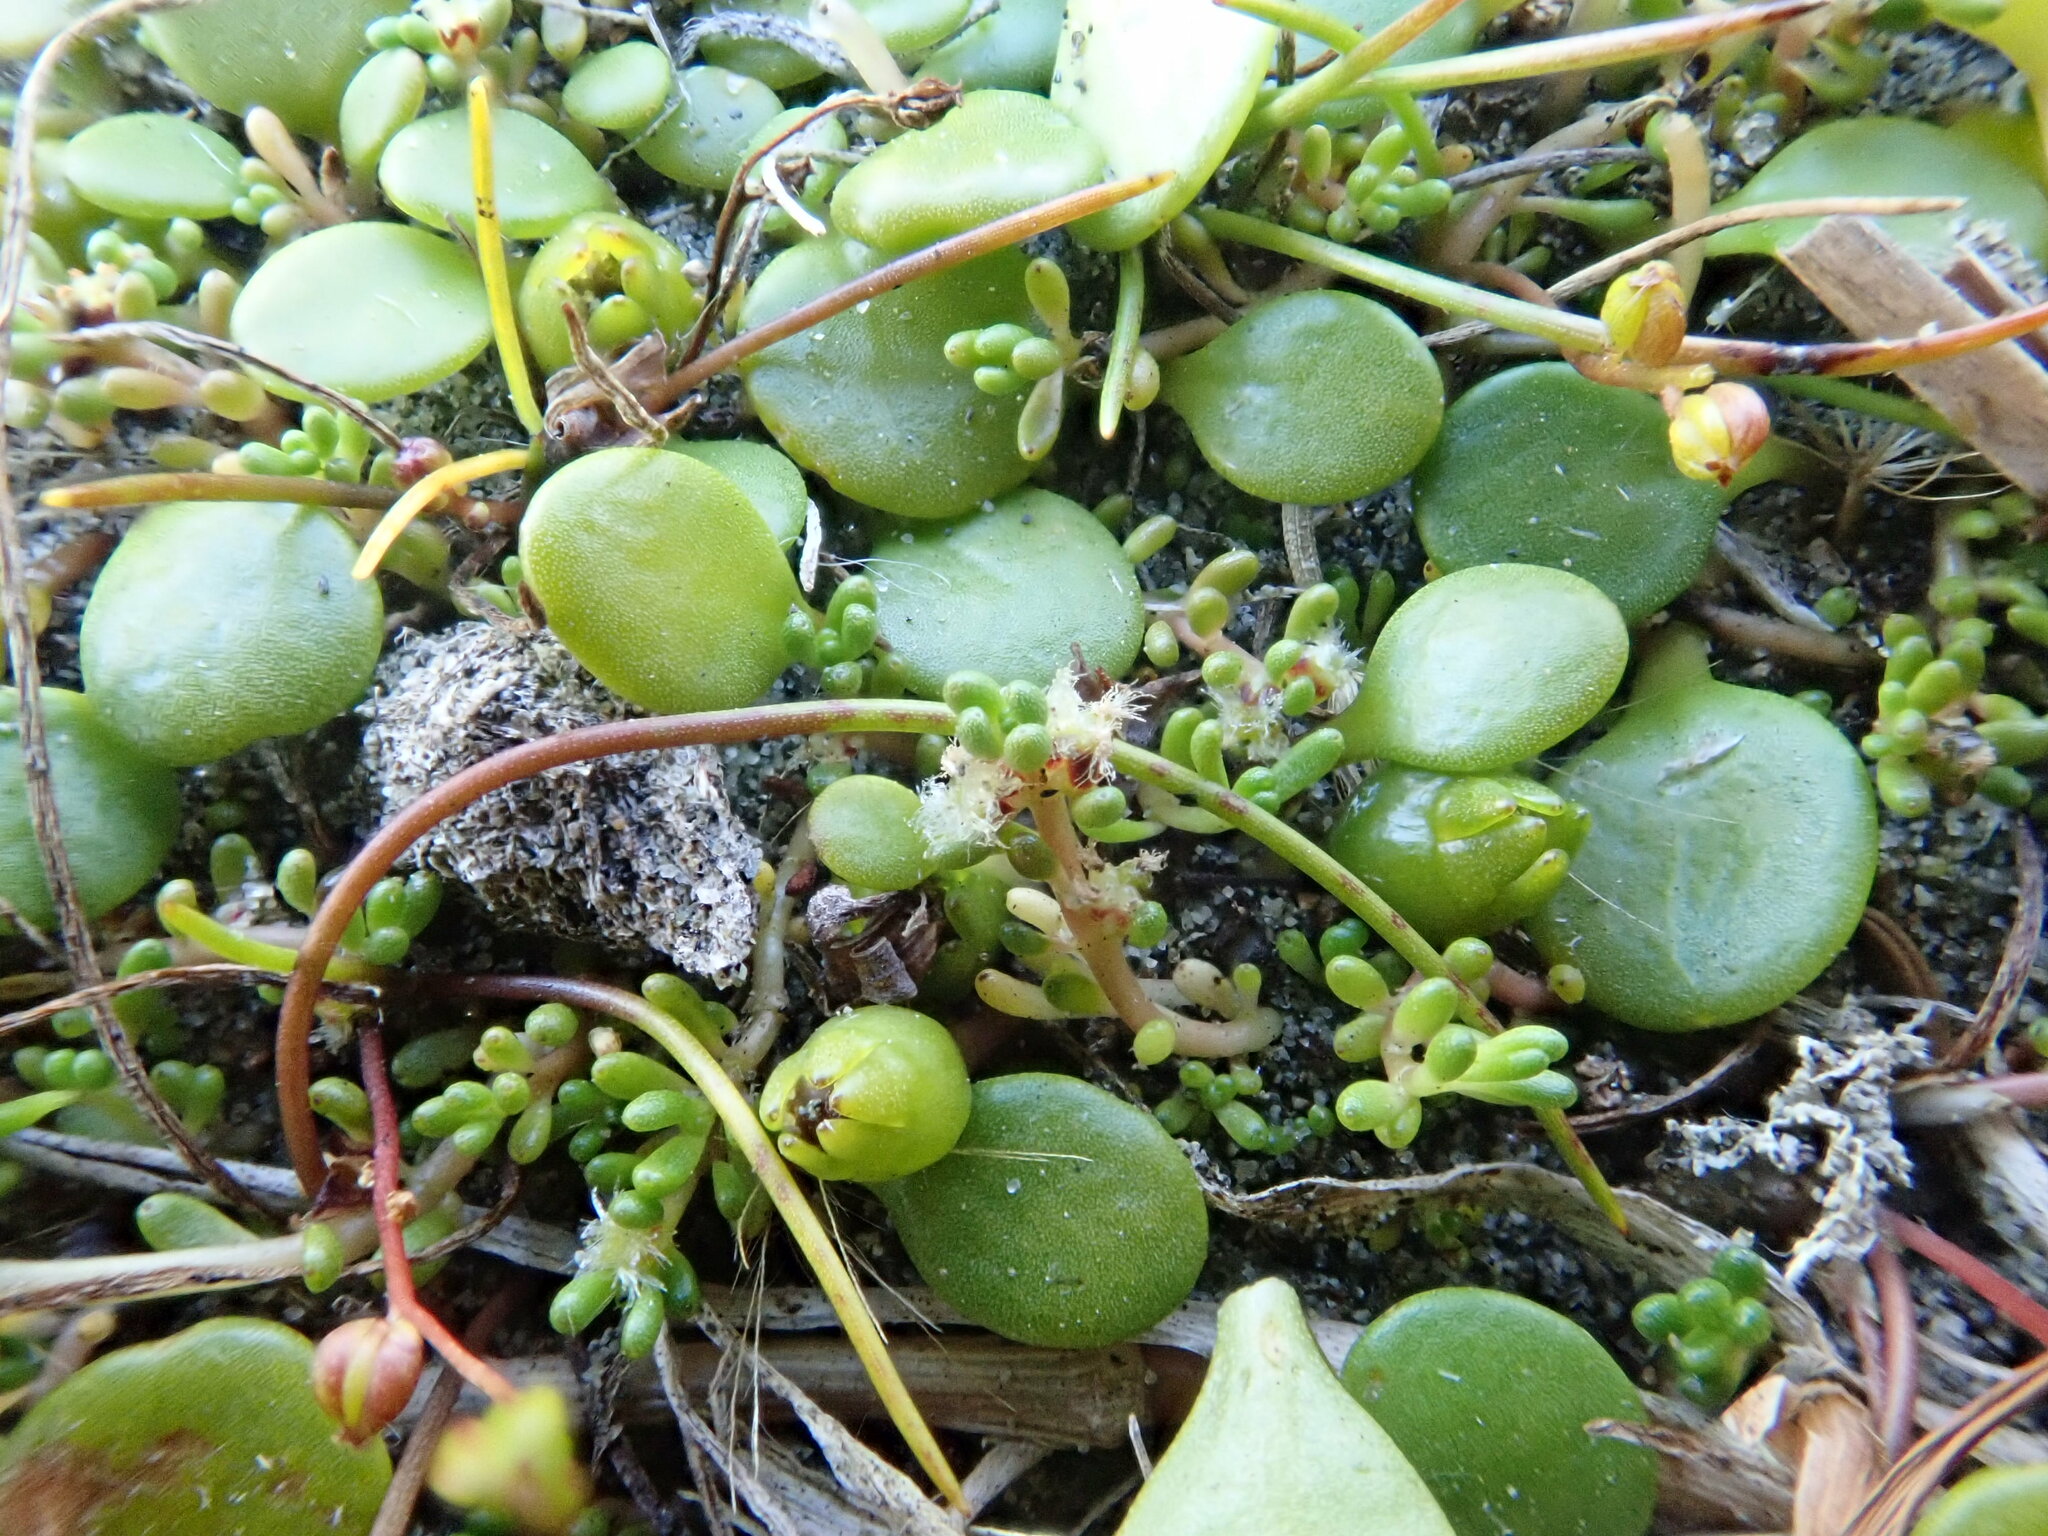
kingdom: Plantae
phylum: Tracheophyta
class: Magnoliopsida
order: Saxifragales
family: Haloragaceae
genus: Myriophyllum
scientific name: Myriophyllum votschii
